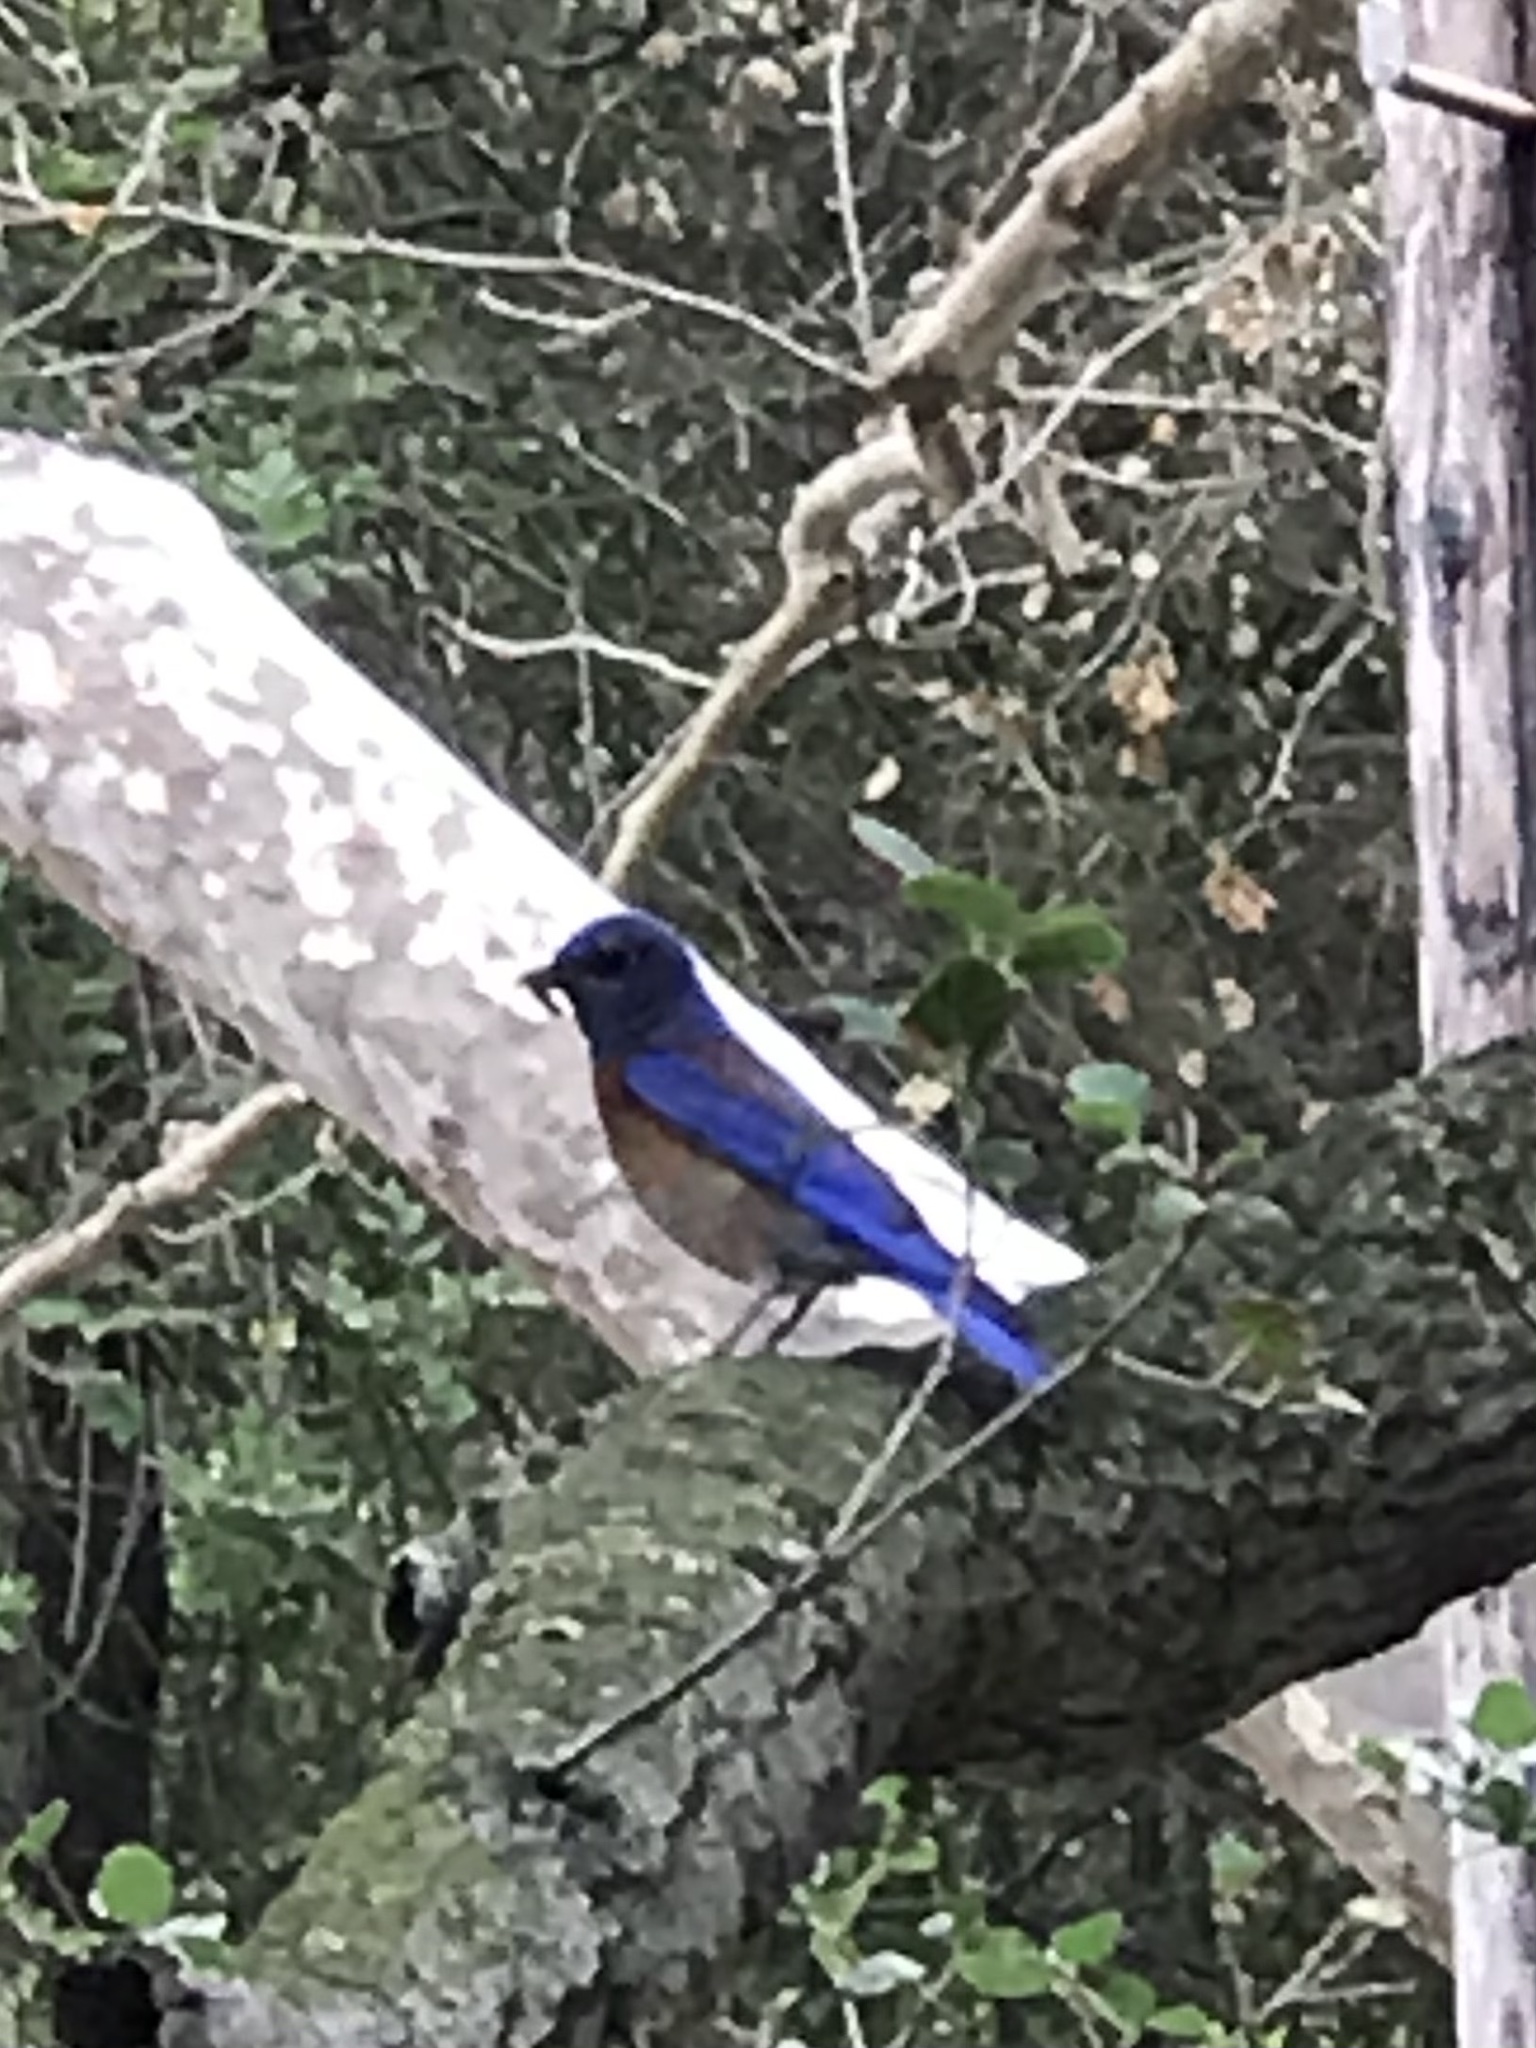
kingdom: Animalia
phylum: Chordata
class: Aves
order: Passeriformes
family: Turdidae
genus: Sialia
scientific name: Sialia mexicana
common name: Western bluebird
